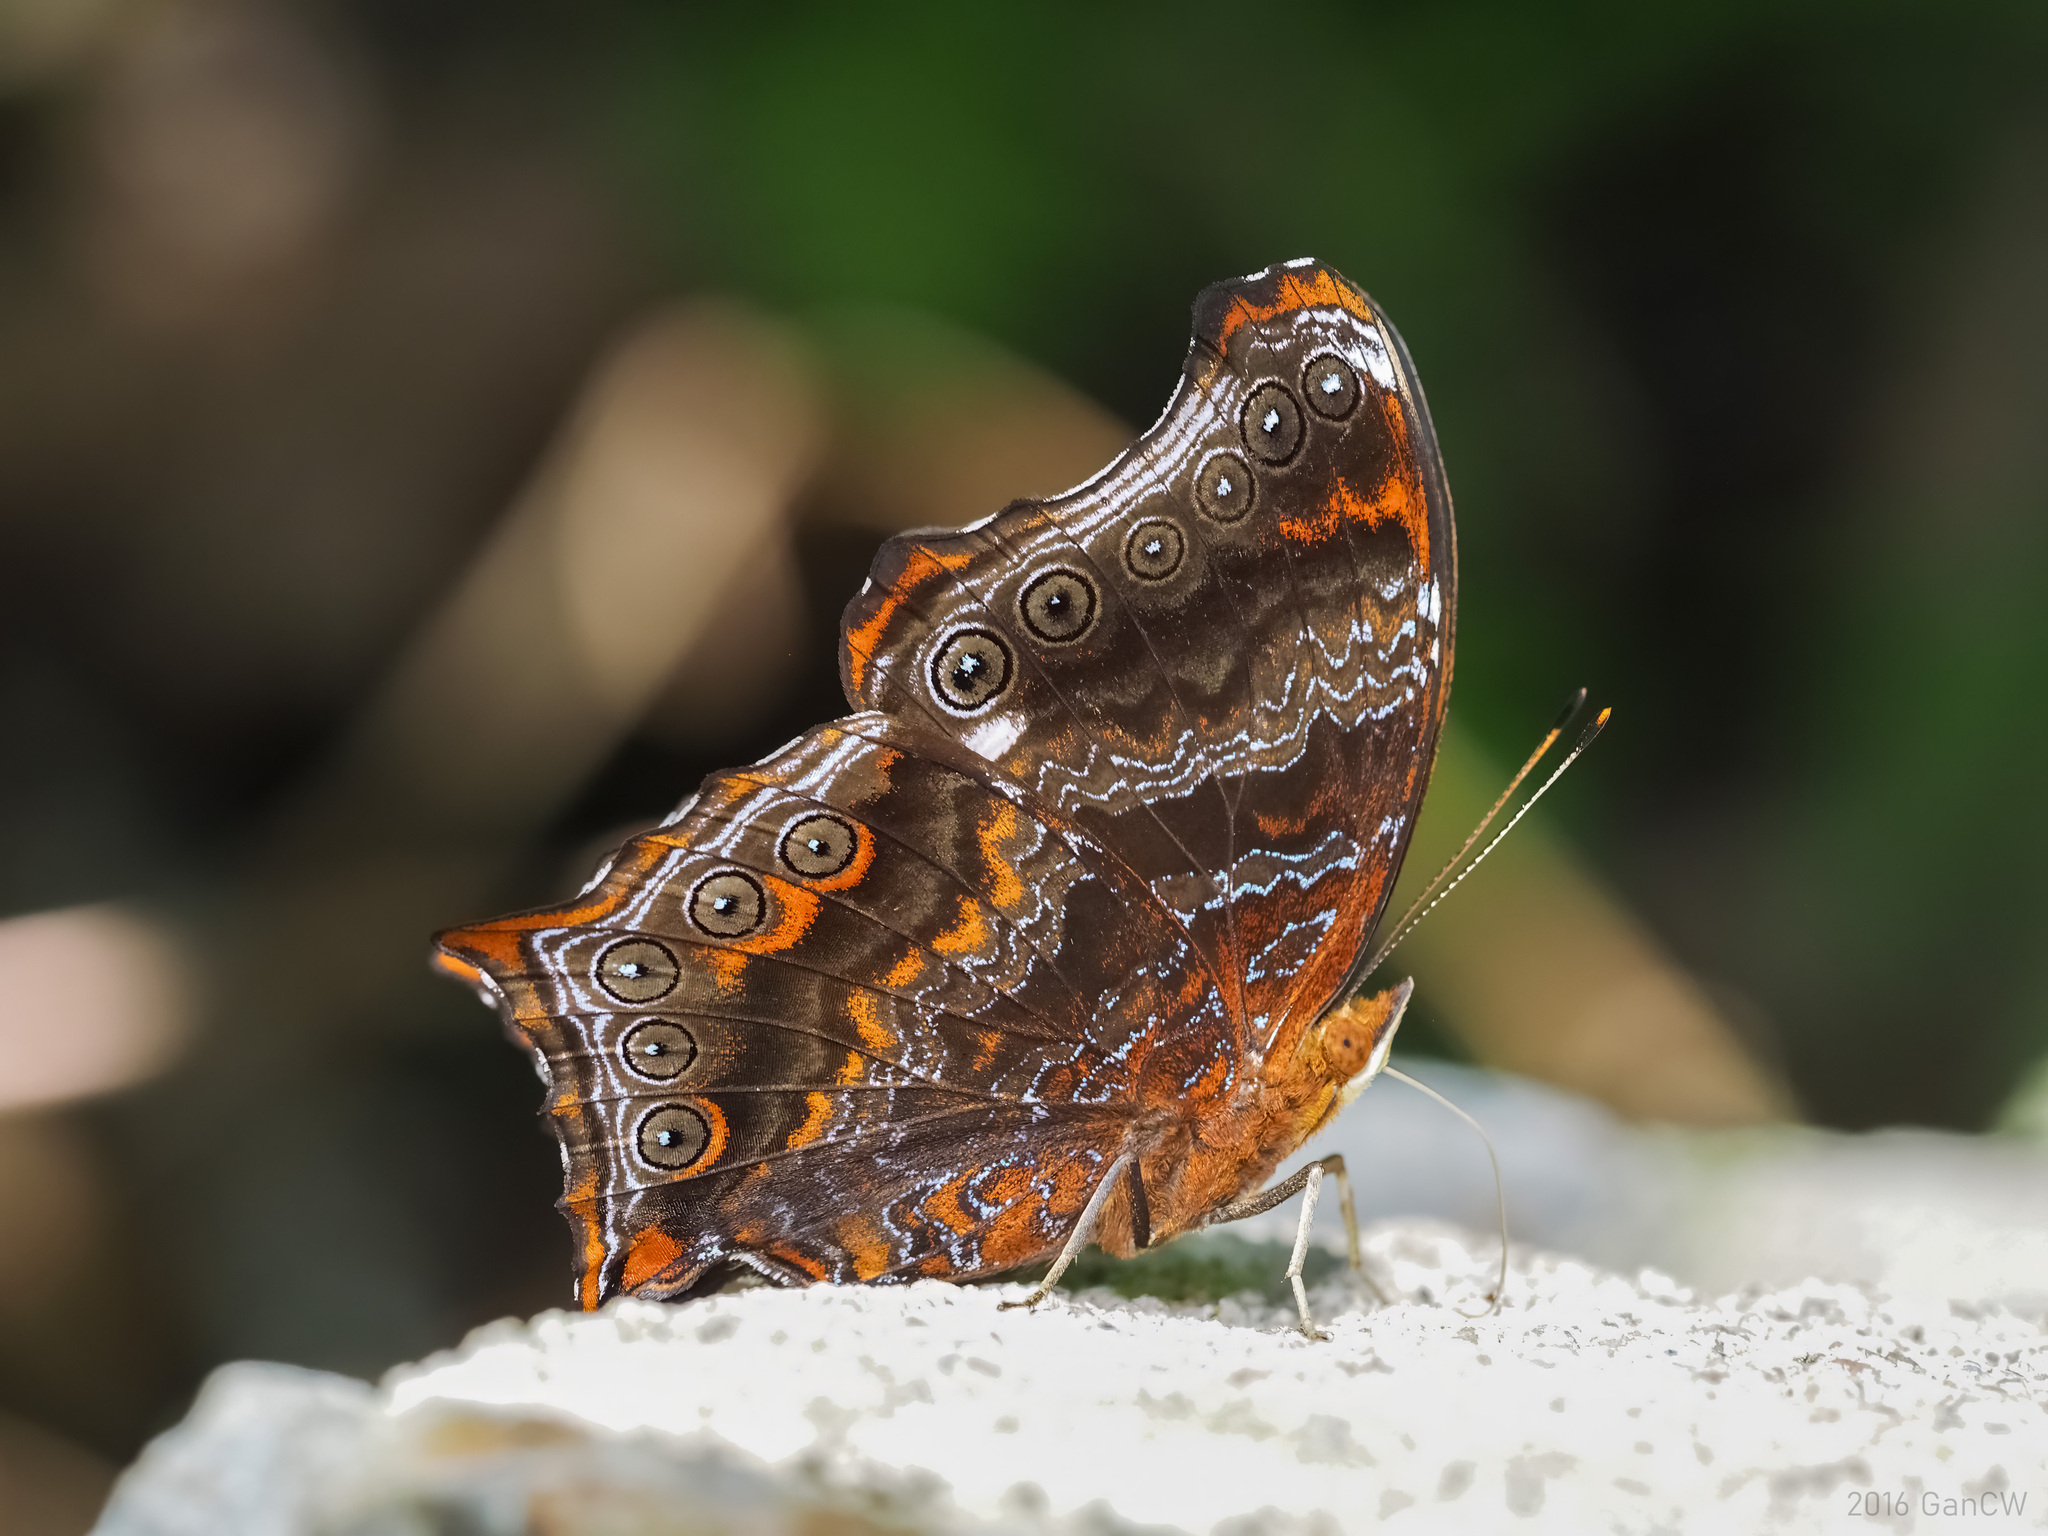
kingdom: Animalia
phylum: Arthropoda
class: Insecta
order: Lepidoptera
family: Nymphalidae
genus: Rhinopalpa
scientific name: Rhinopalpa polynice
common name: Wizard
